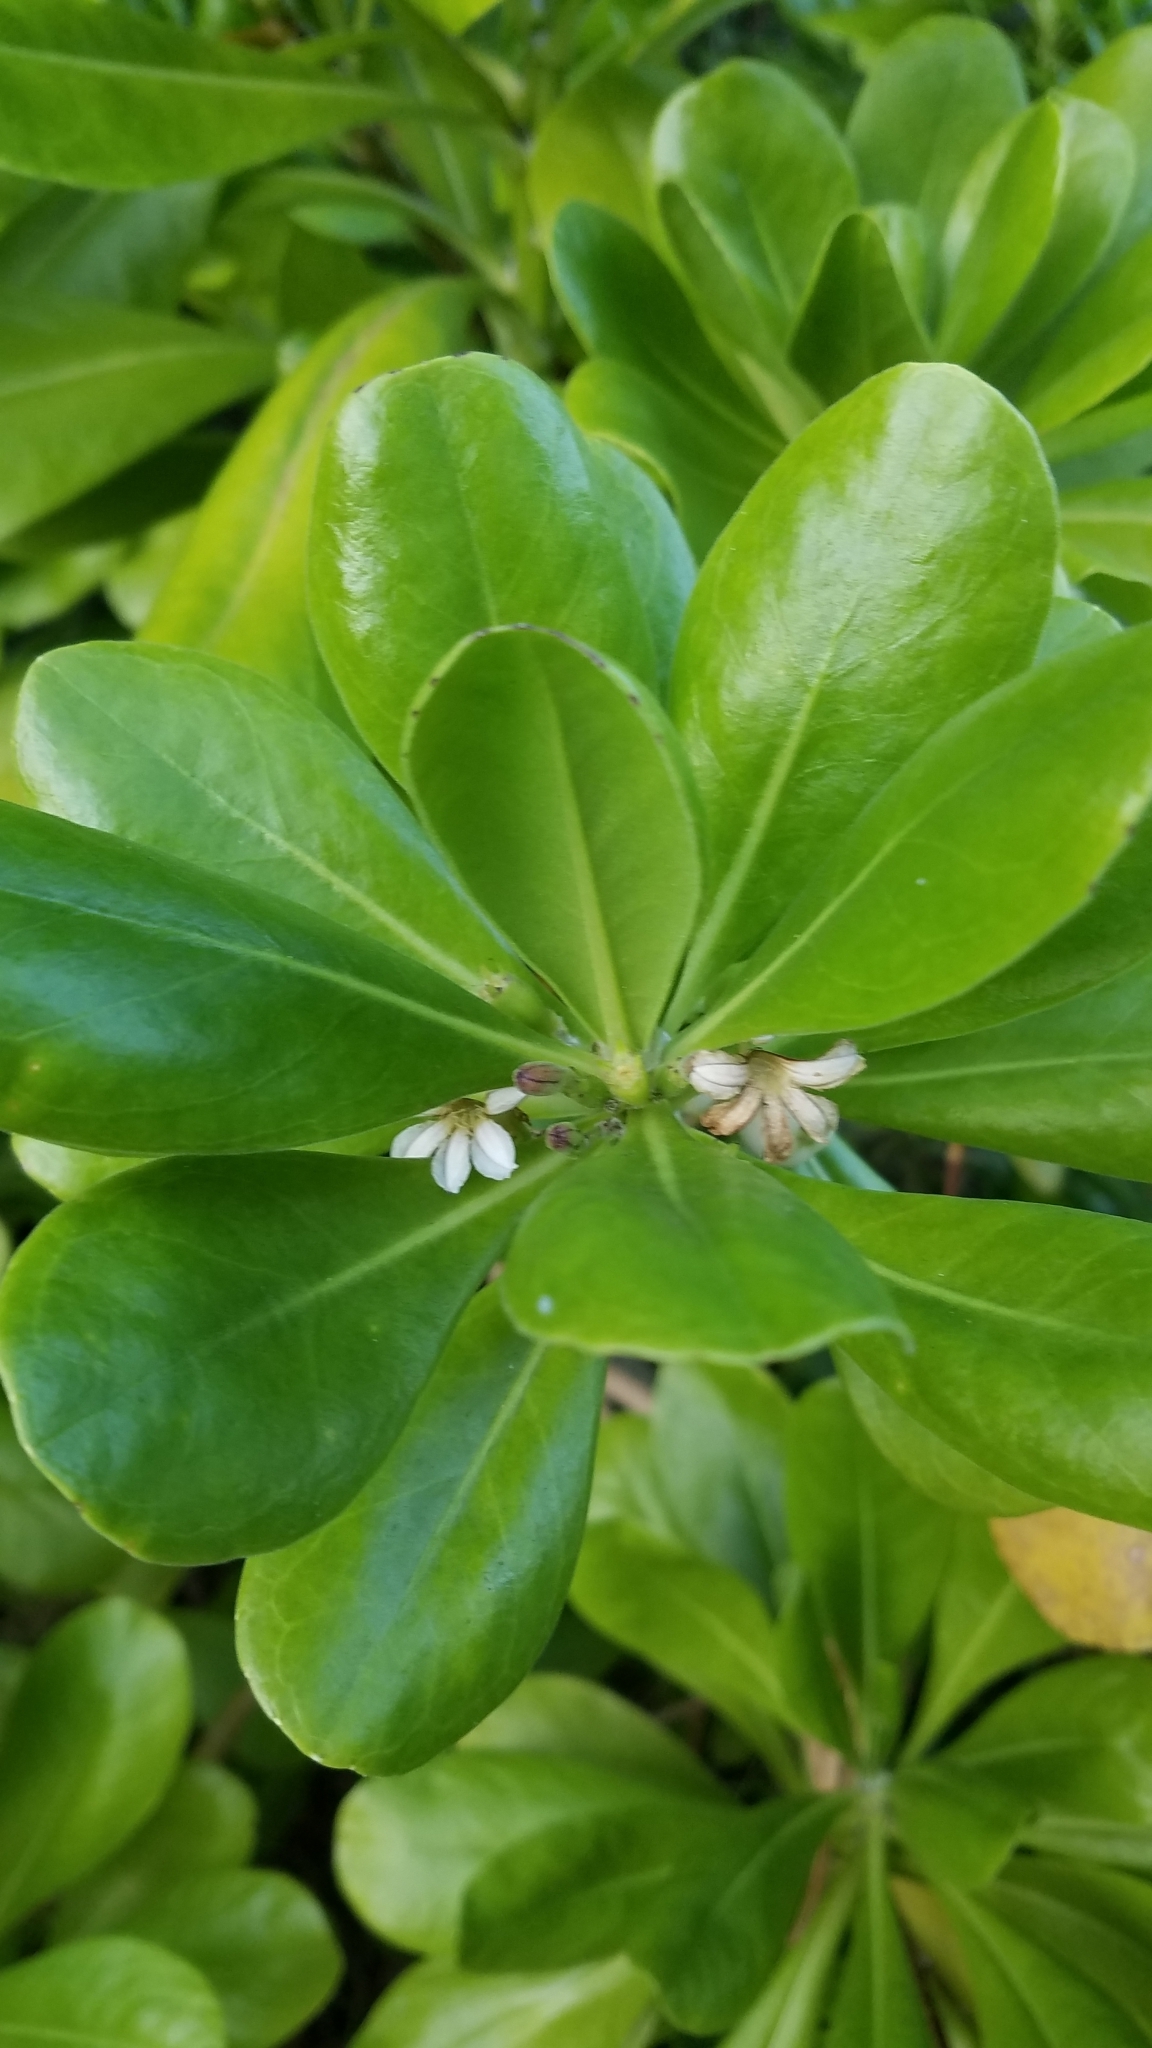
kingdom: Plantae
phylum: Tracheophyta
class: Magnoliopsida
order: Asterales
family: Goodeniaceae
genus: Scaevola
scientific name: Scaevola taccada
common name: Sea lettucetree
